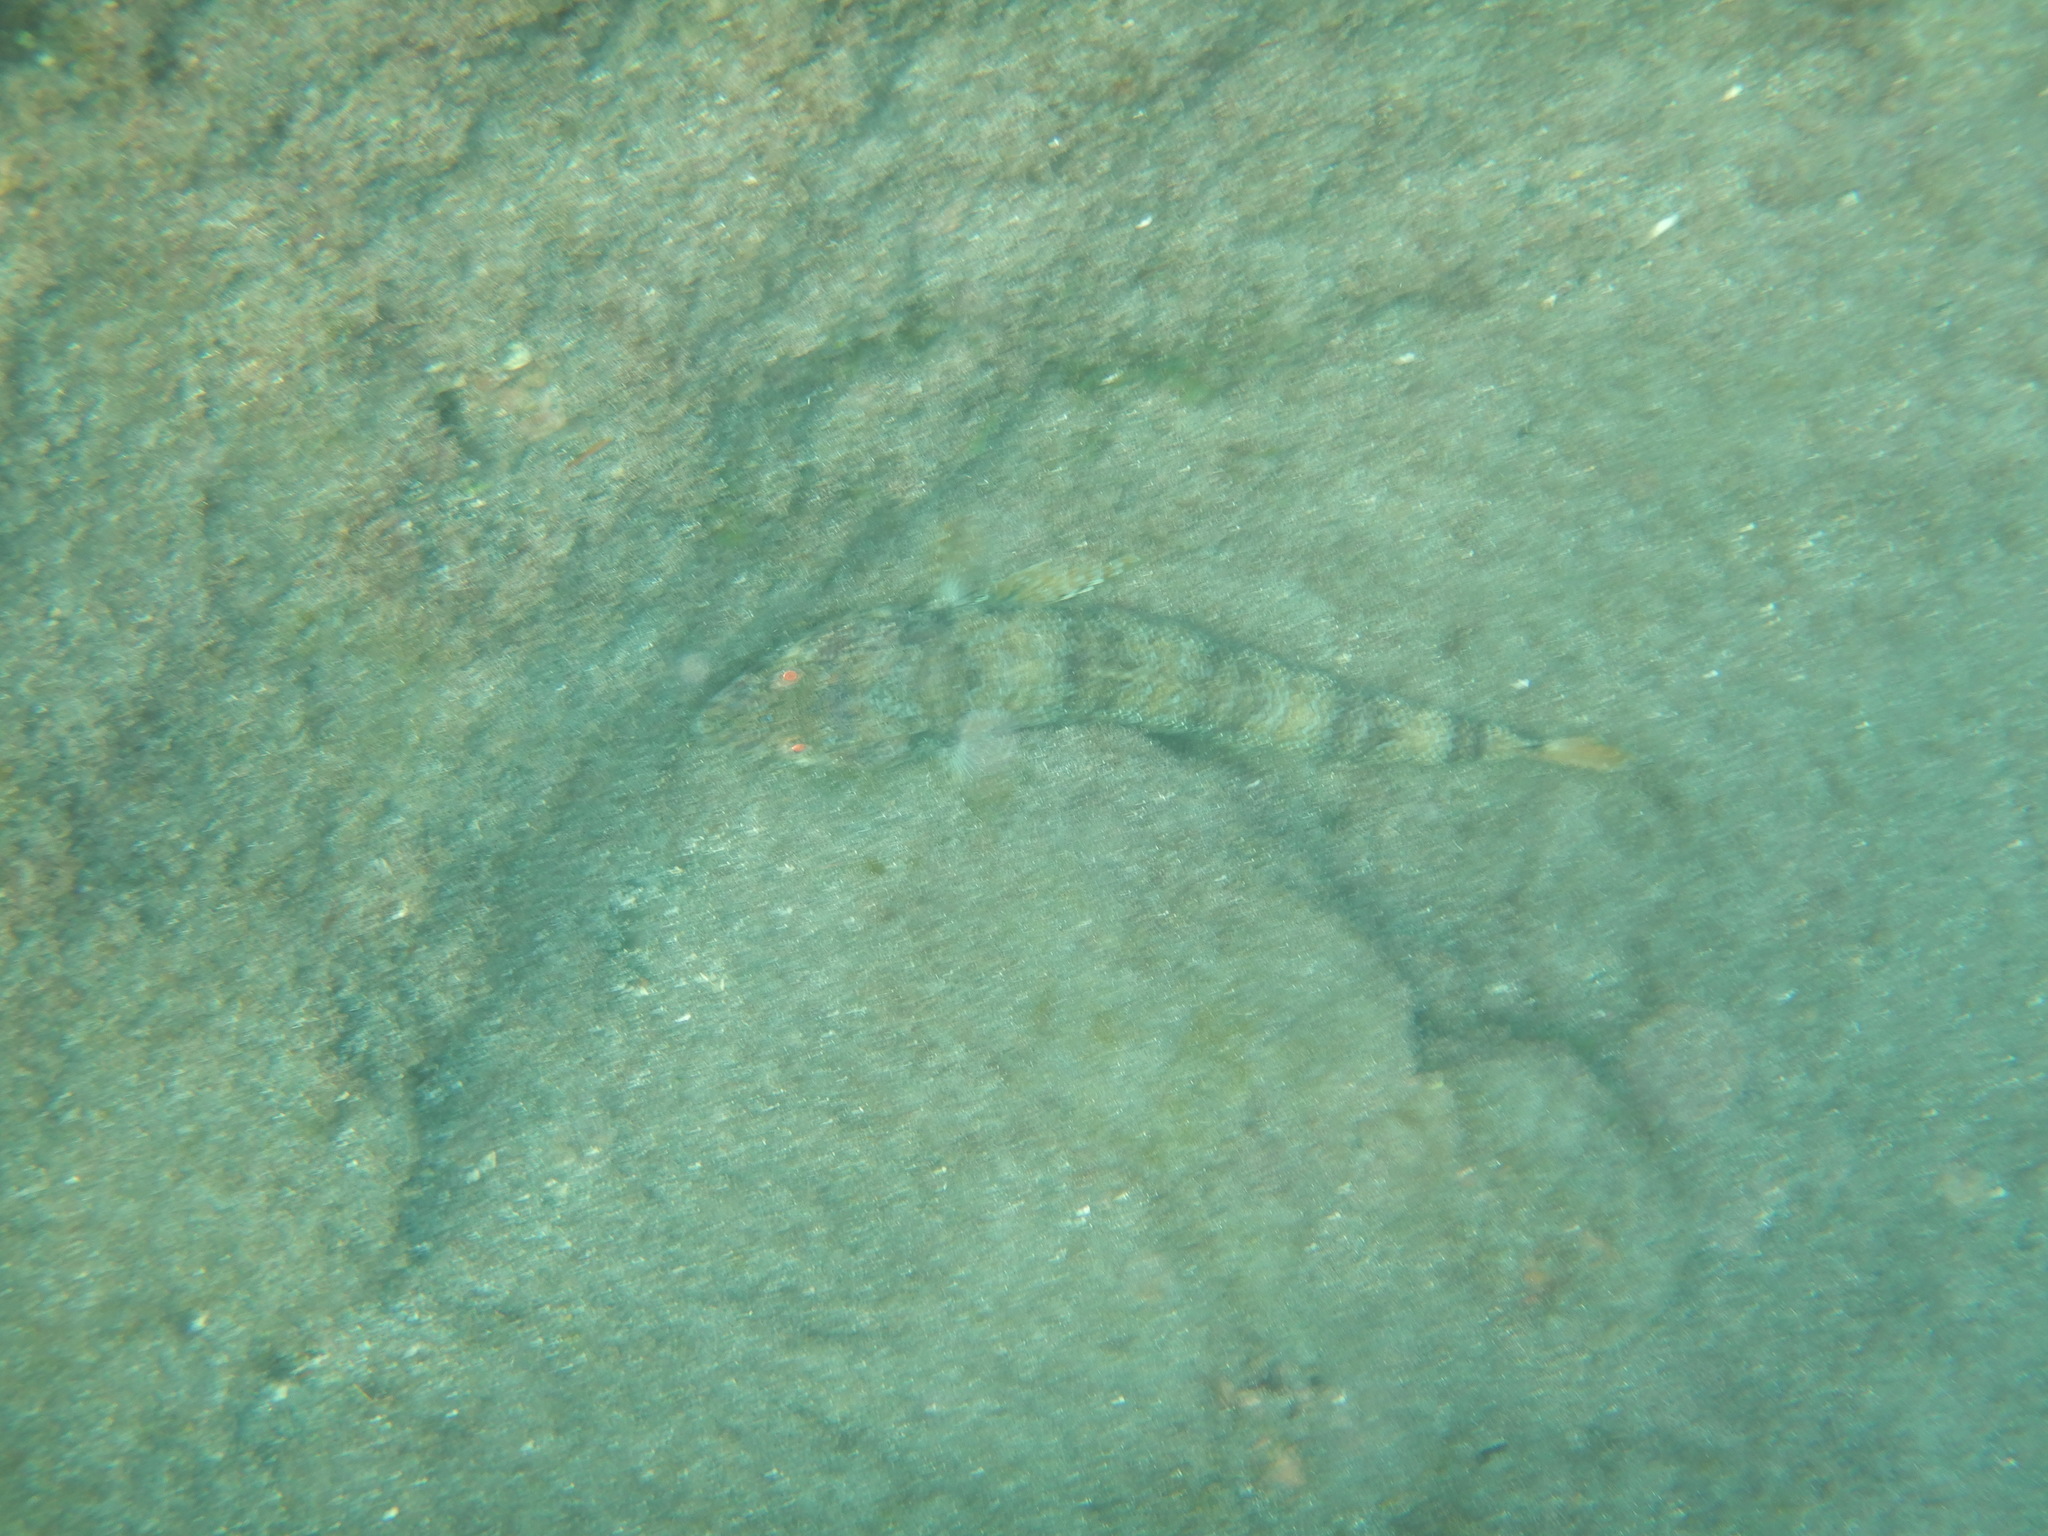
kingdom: Animalia
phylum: Chordata
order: Aulopiformes
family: Synodontidae
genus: Synodus
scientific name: Synodus synodus
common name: Red lizardfish
